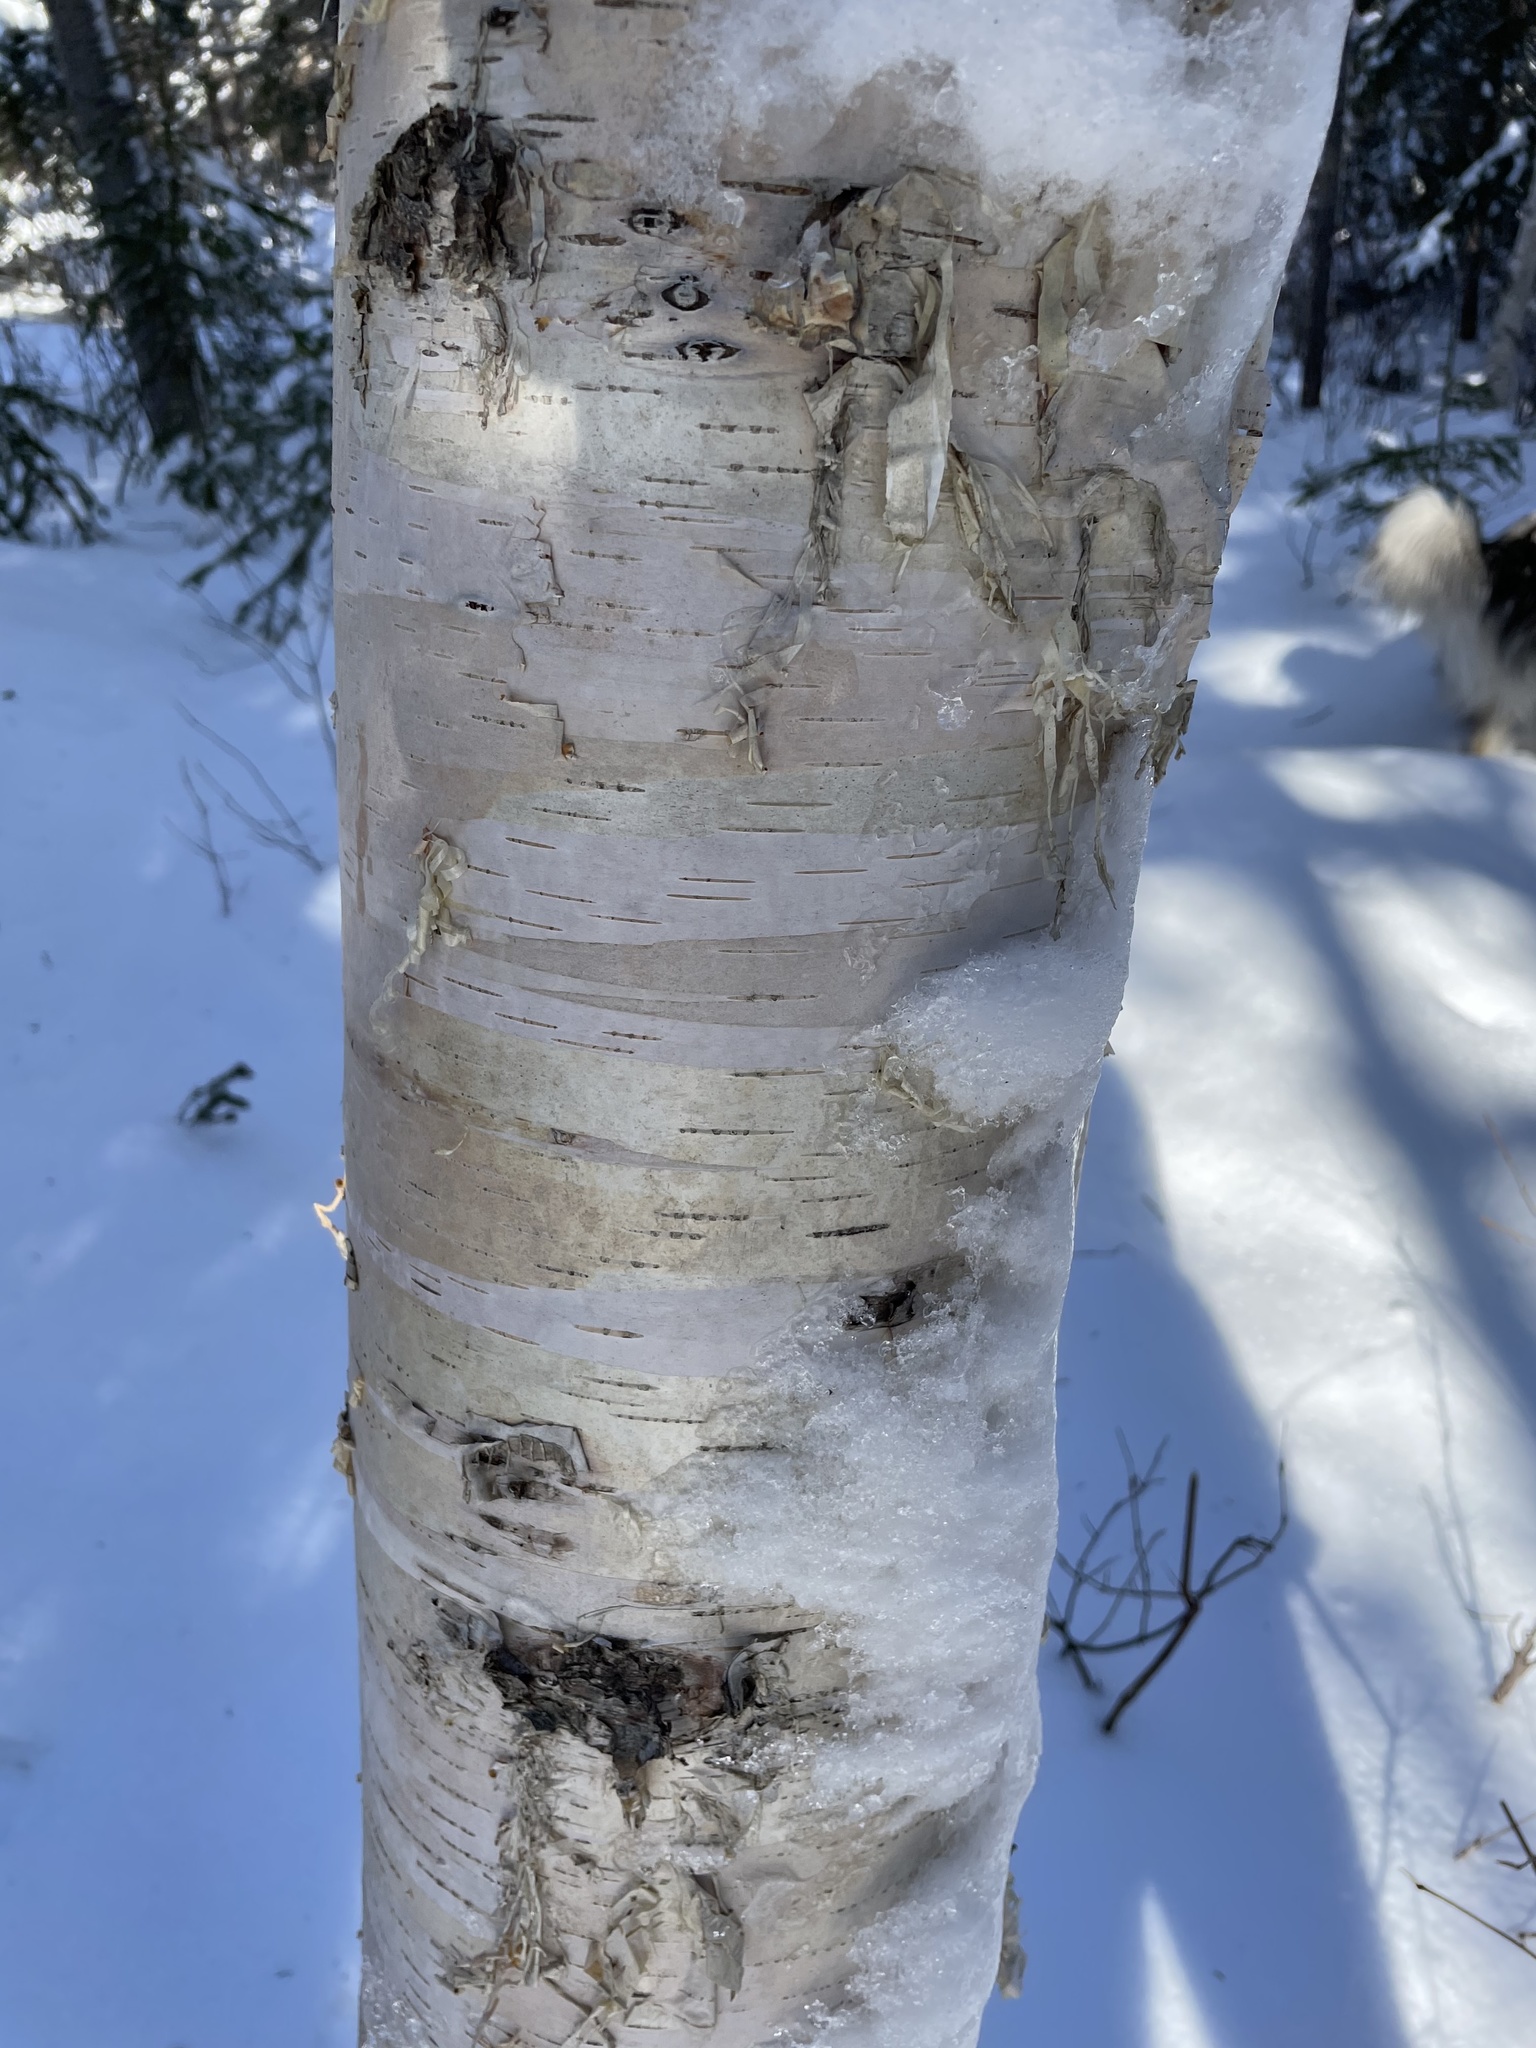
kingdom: Plantae
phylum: Tracheophyta
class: Magnoliopsida
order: Fagales
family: Betulaceae
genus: Betula
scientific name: Betula papyrifera
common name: Paper birch
